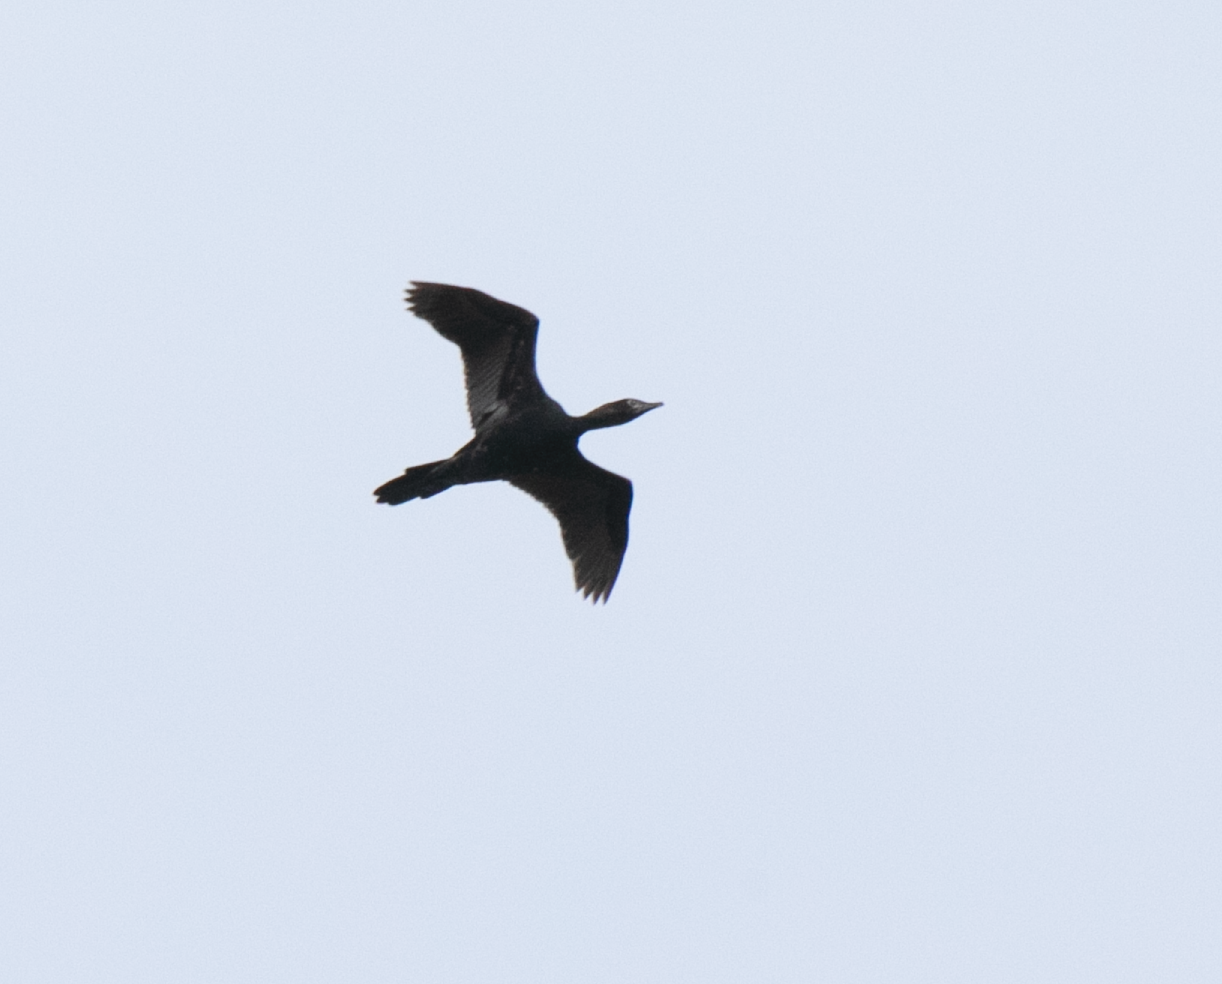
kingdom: Animalia
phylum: Chordata
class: Aves
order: Suliformes
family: Phalacrocoracidae
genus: Microcarbo
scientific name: Microcarbo pygmaeus
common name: Pygmy cormorant
